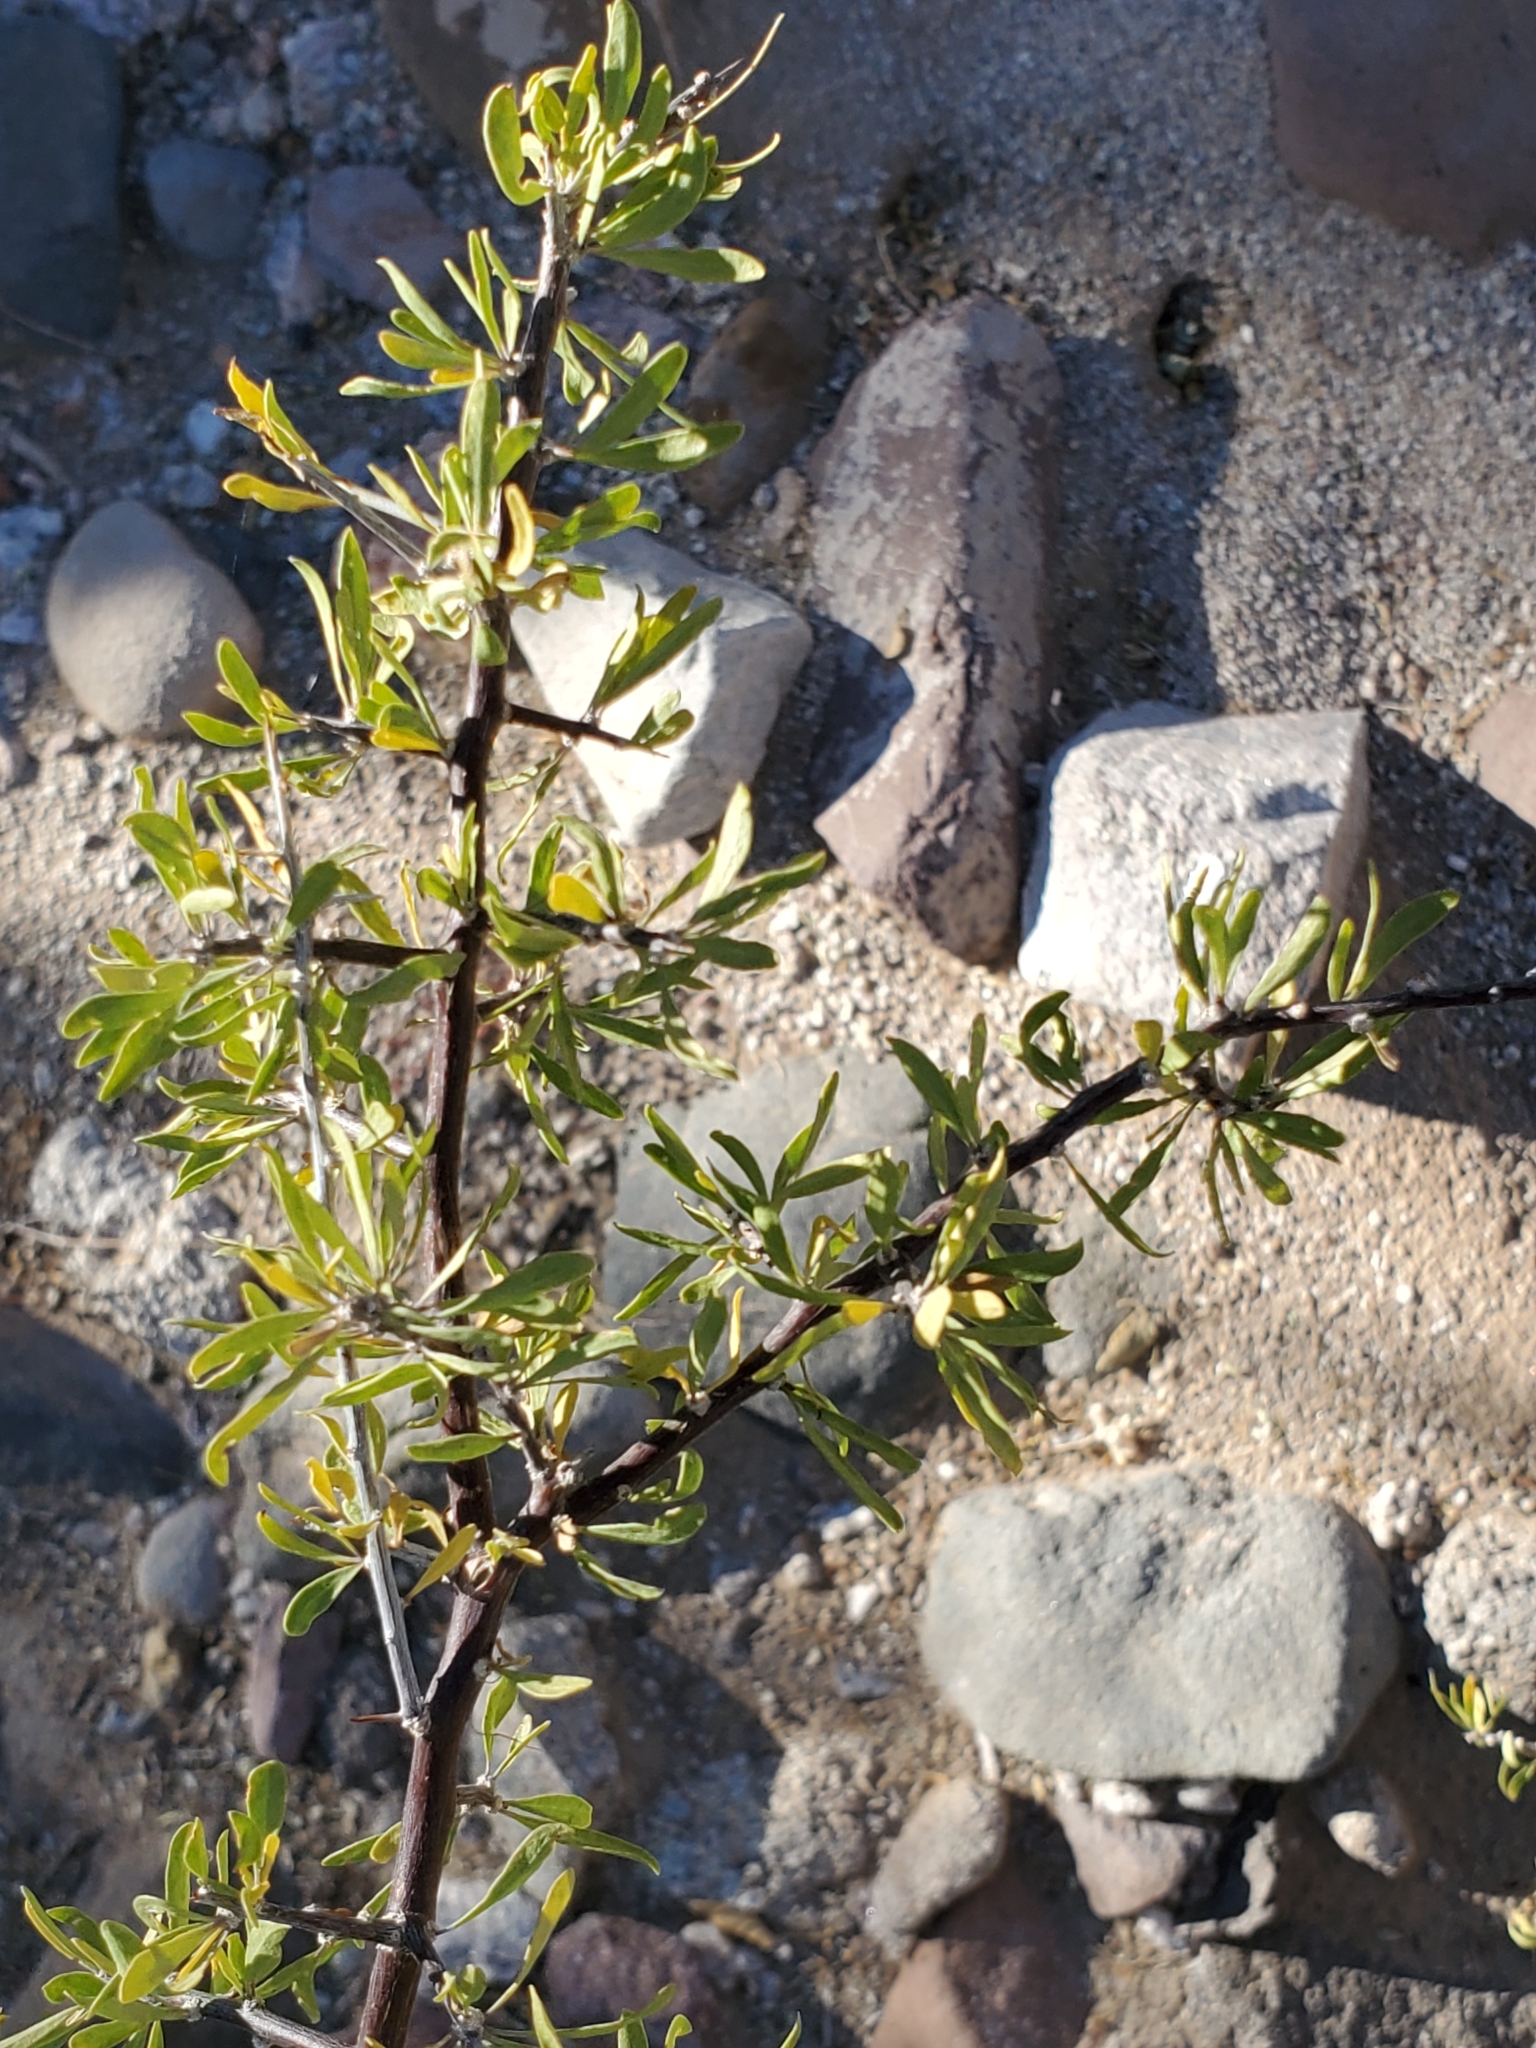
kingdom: Plantae
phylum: Tracheophyta
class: Magnoliopsida
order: Solanales
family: Solanaceae
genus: Lycium
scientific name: Lycium berlandieri
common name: Berlandier wolfberry
